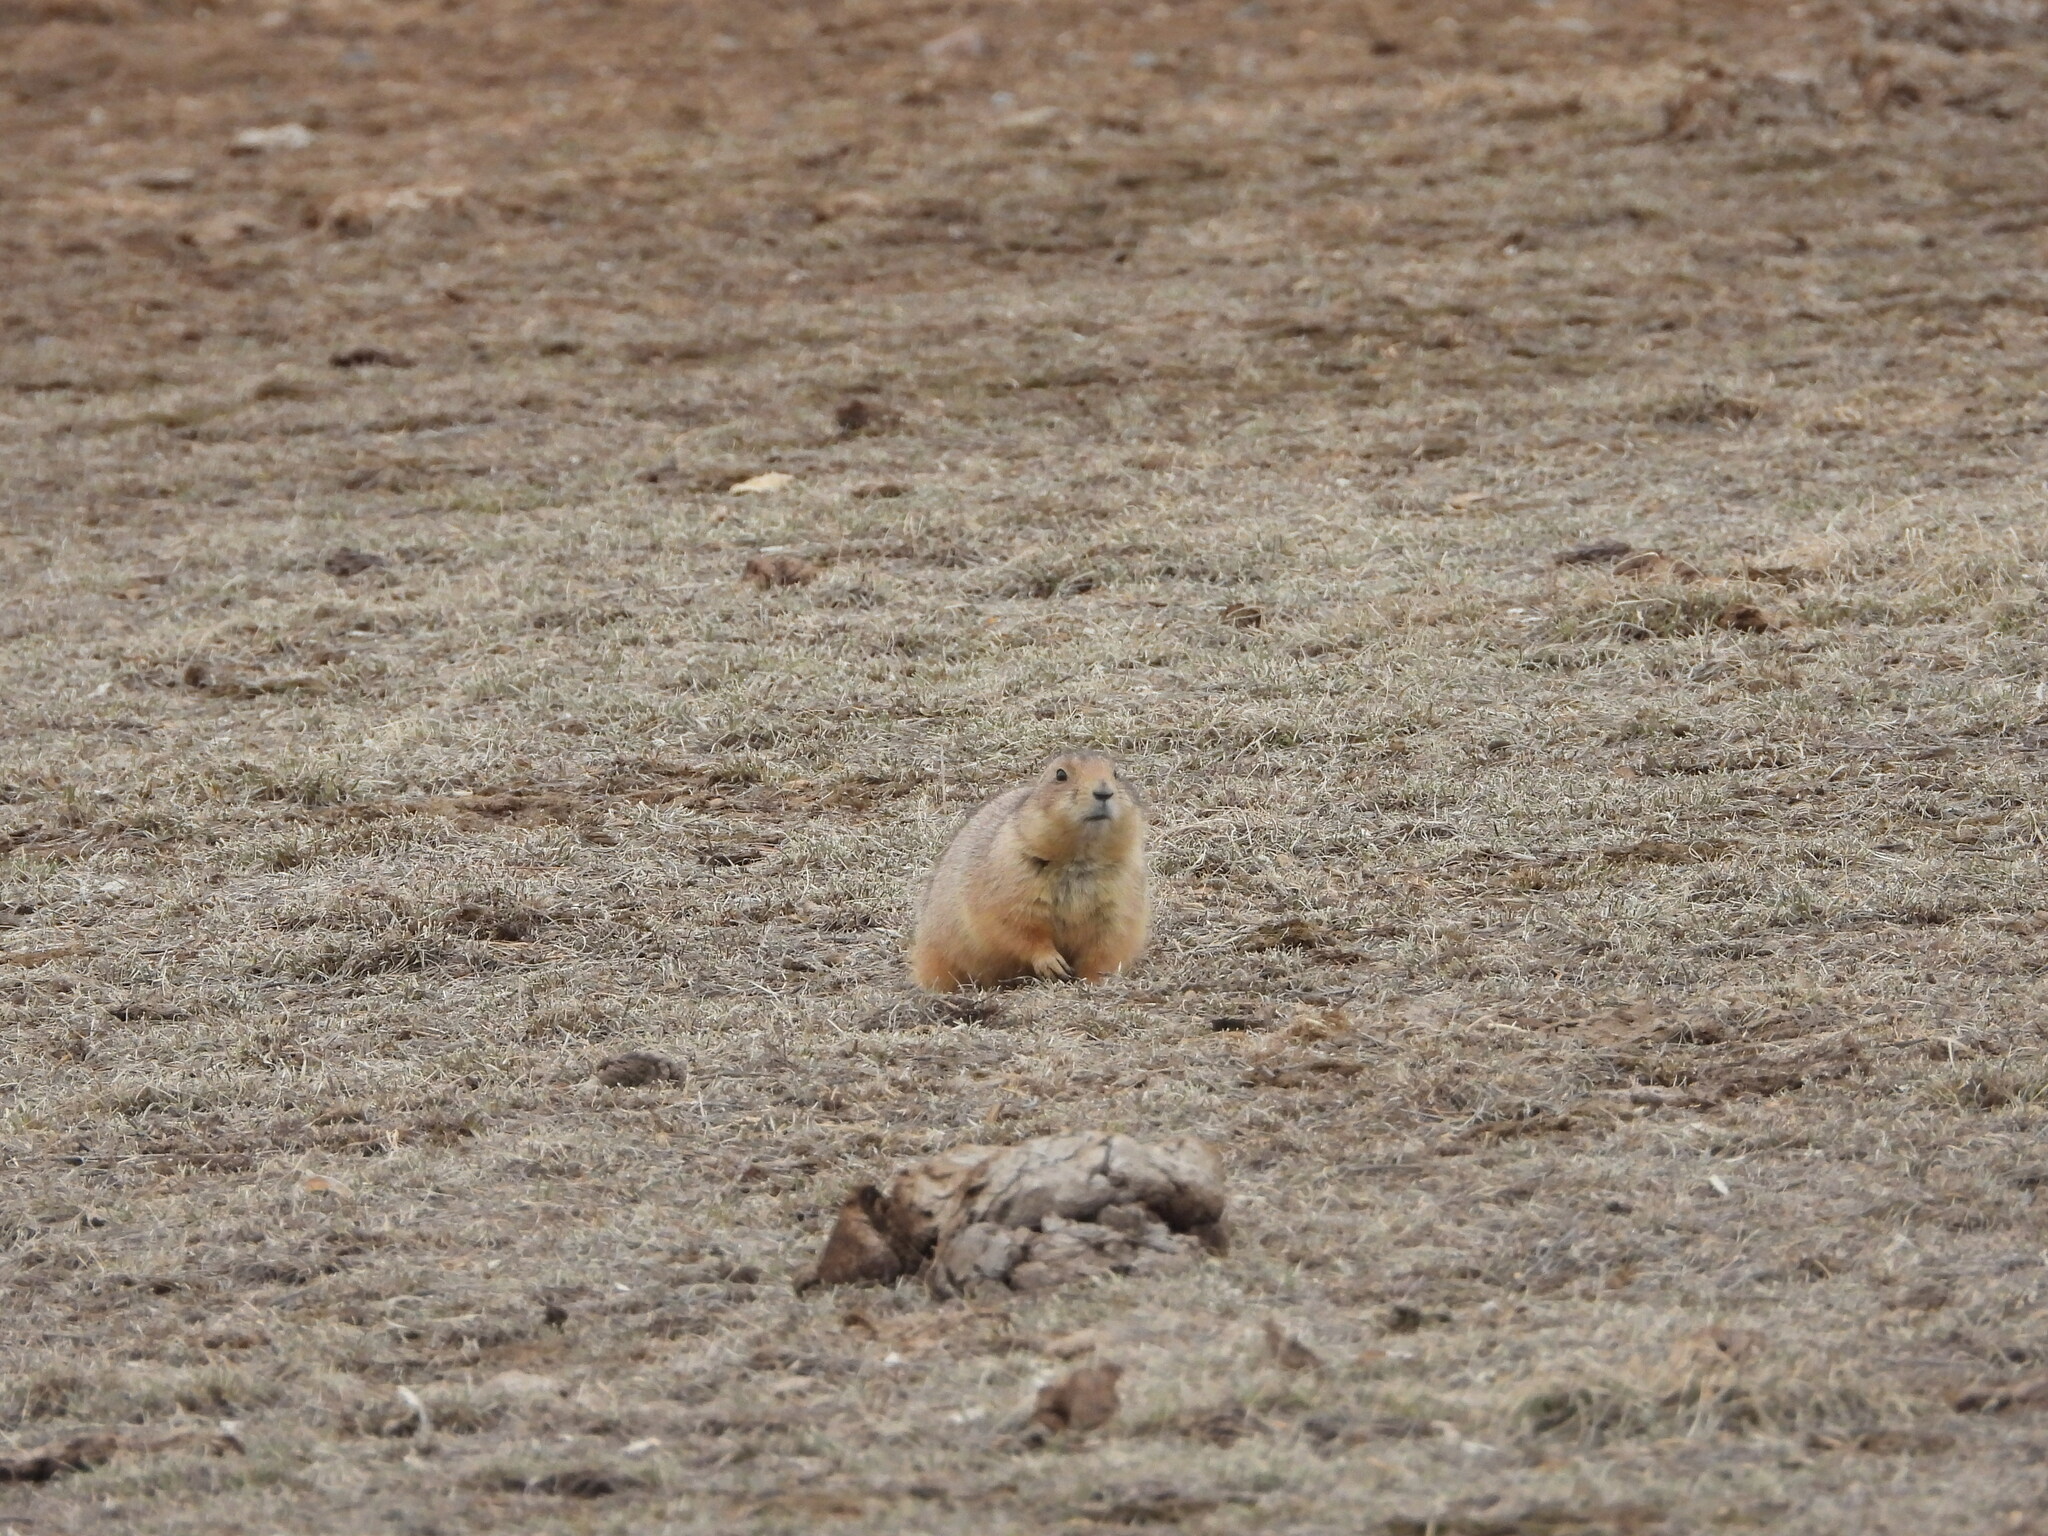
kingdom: Animalia
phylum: Chordata
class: Mammalia
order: Rodentia
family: Sciuridae
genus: Cynomys
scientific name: Cynomys ludovicianus
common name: Black-tailed prairie dog
